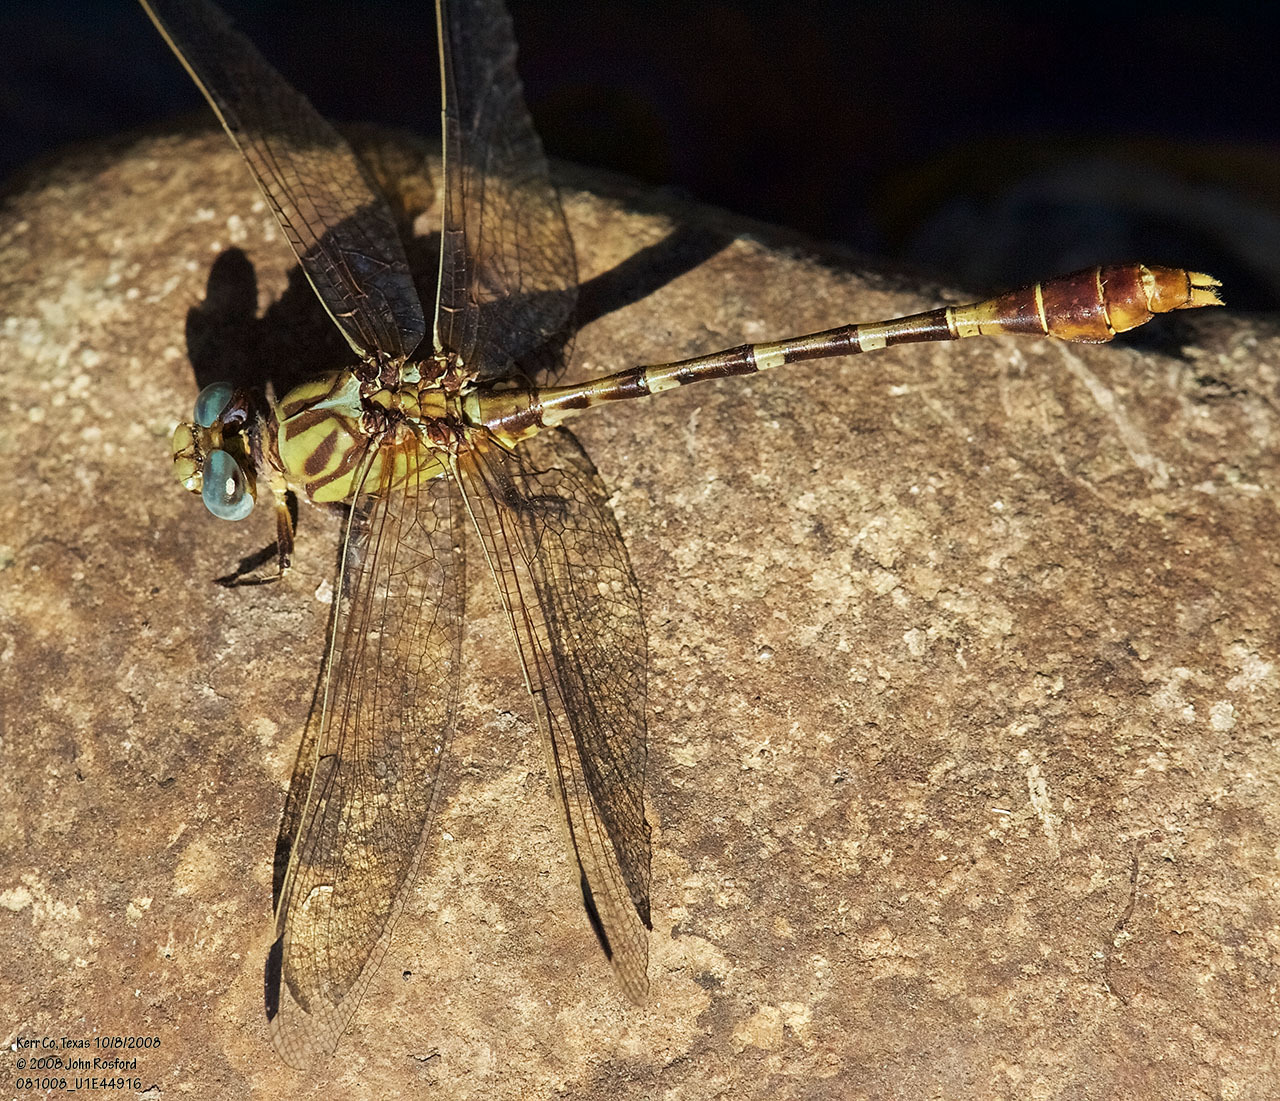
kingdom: Animalia
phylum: Arthropoda
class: Insecta
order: Odonata
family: Gomphidae
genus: Erpetogomphus
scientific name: Erpetogomphus designatus
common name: Eastern ringtail
